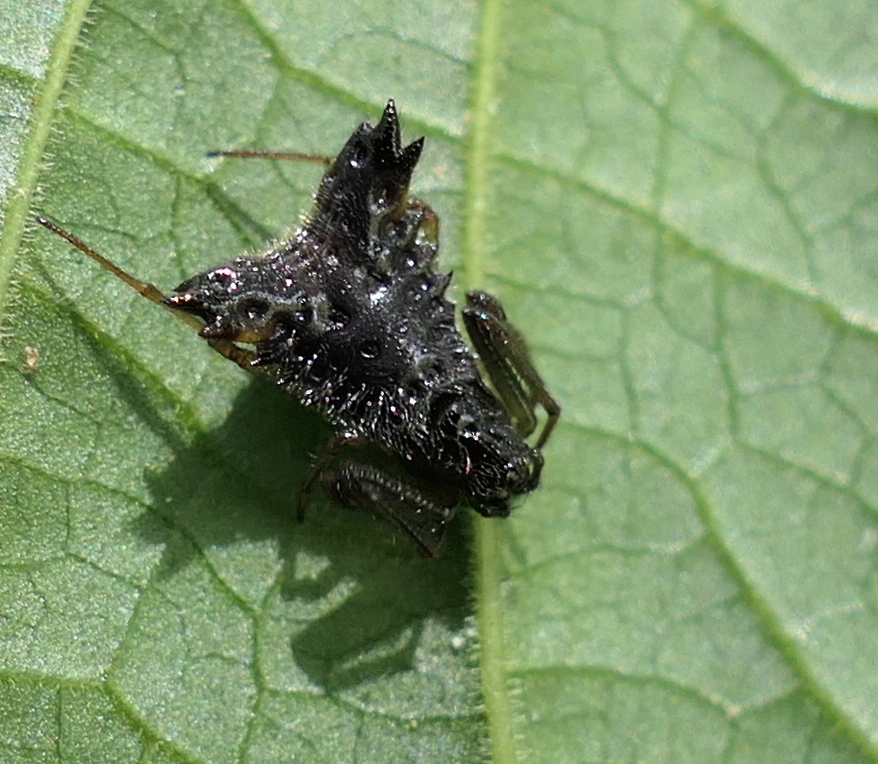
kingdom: Animalia
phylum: Arthropoda
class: Arachnida
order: Araneae
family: Araneidae
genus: Micrathena
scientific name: Micrathena triangularis
